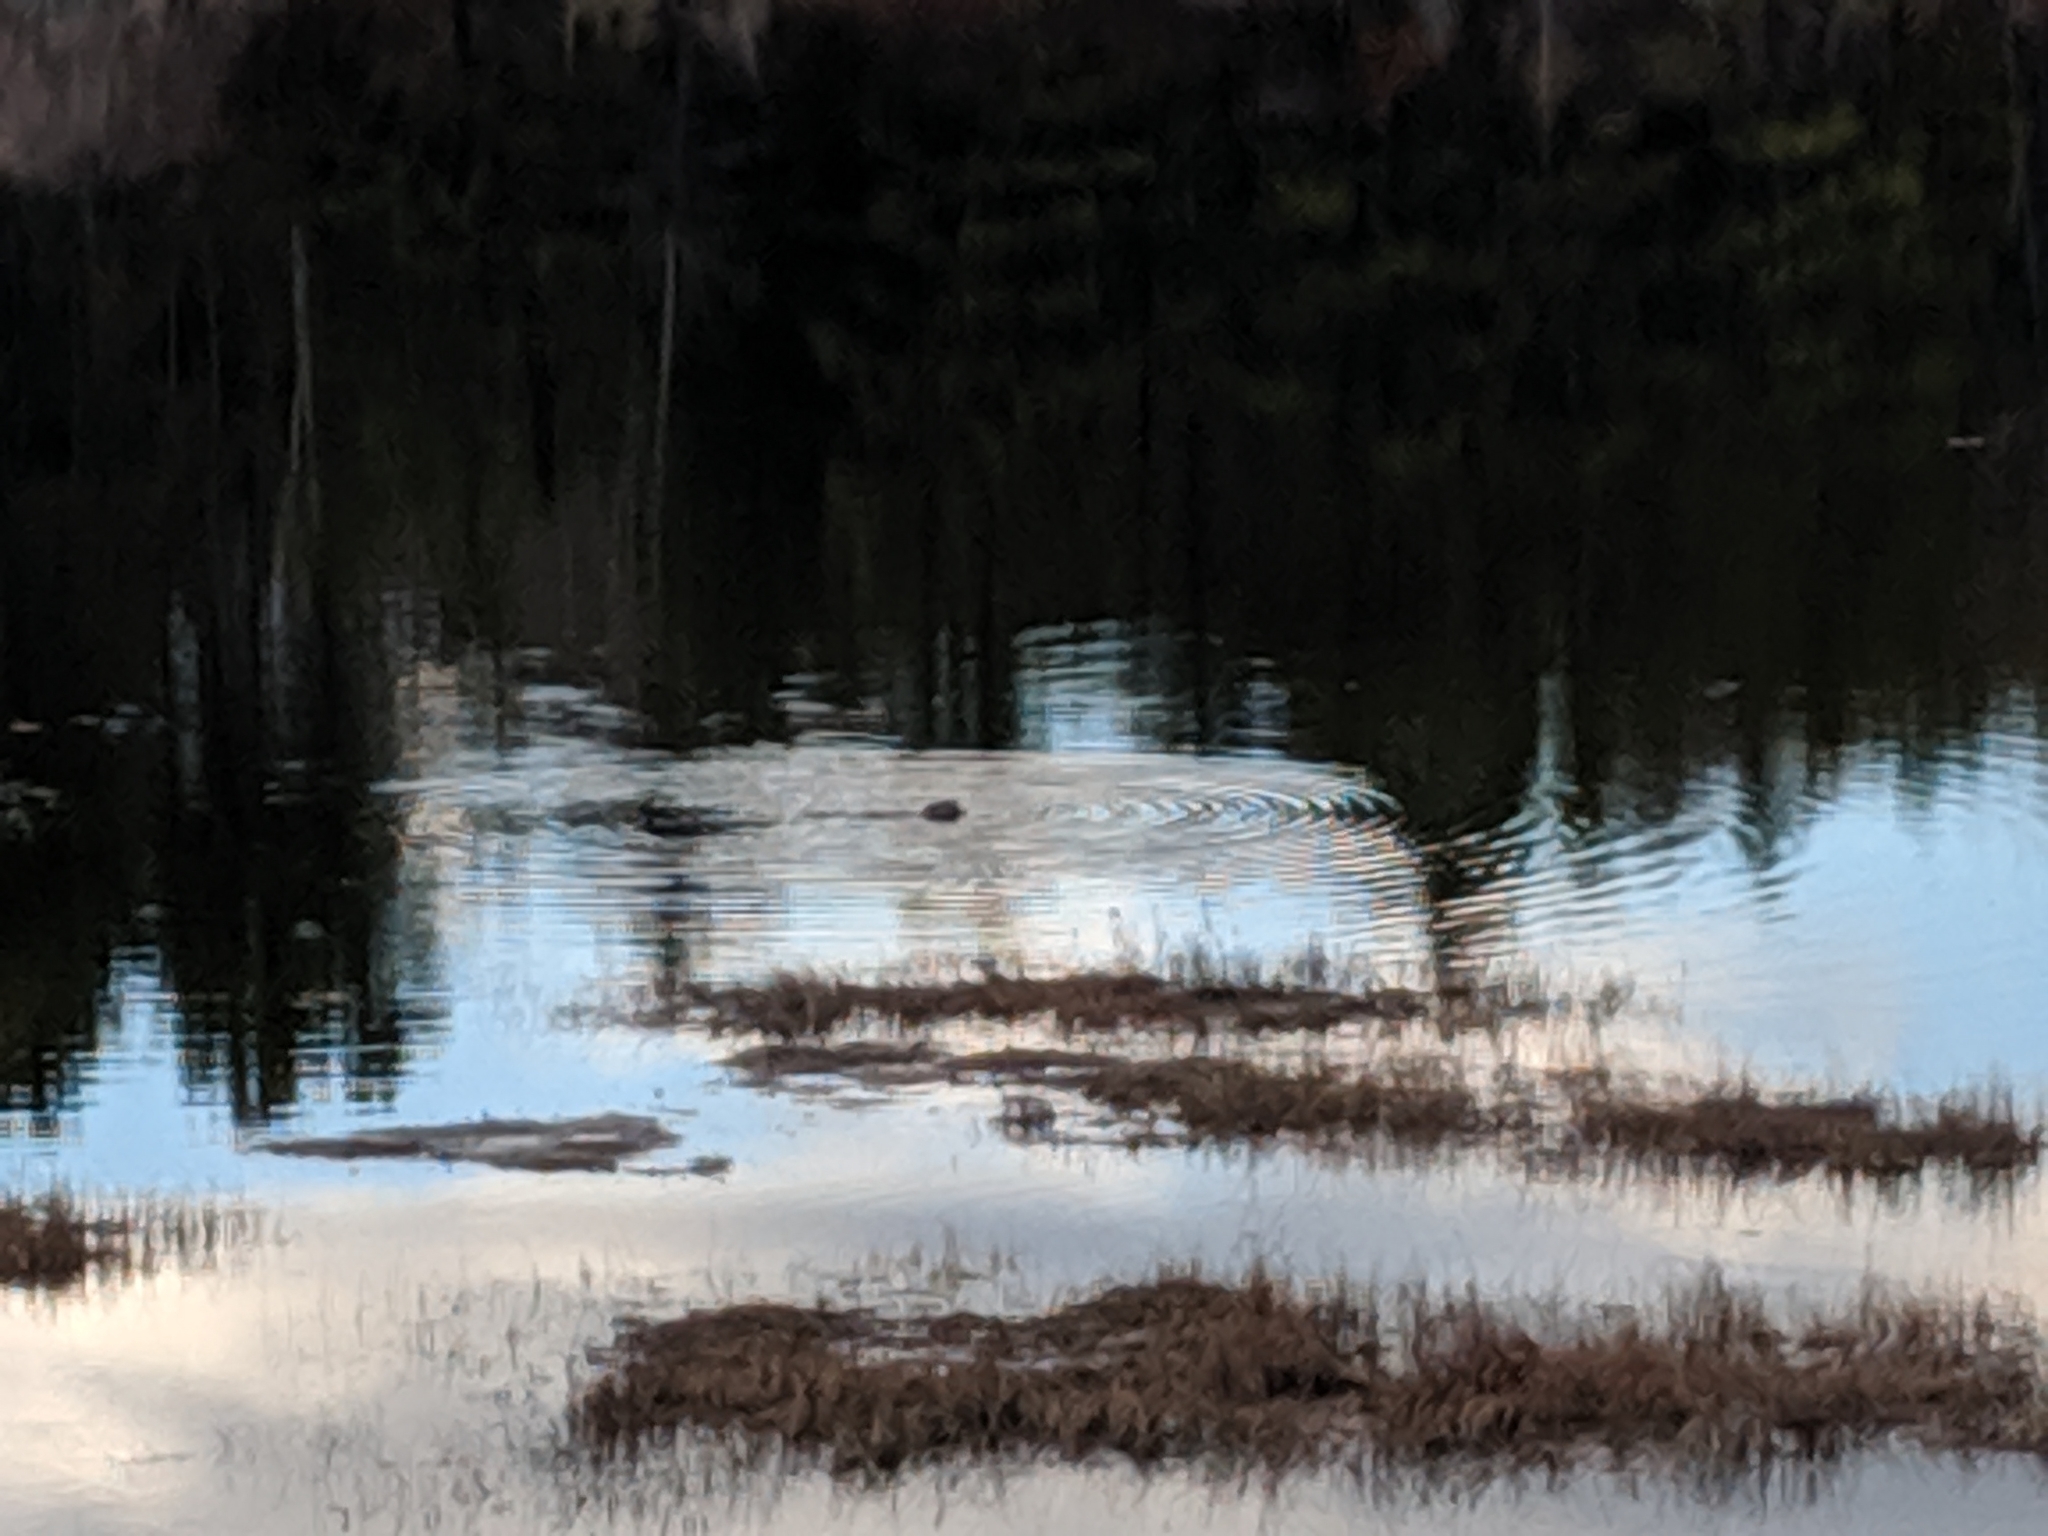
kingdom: Animalia
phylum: Chordata
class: Mammalia
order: Rodentia
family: Castoridae
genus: Castor
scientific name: Castor canadensis
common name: American beaver
